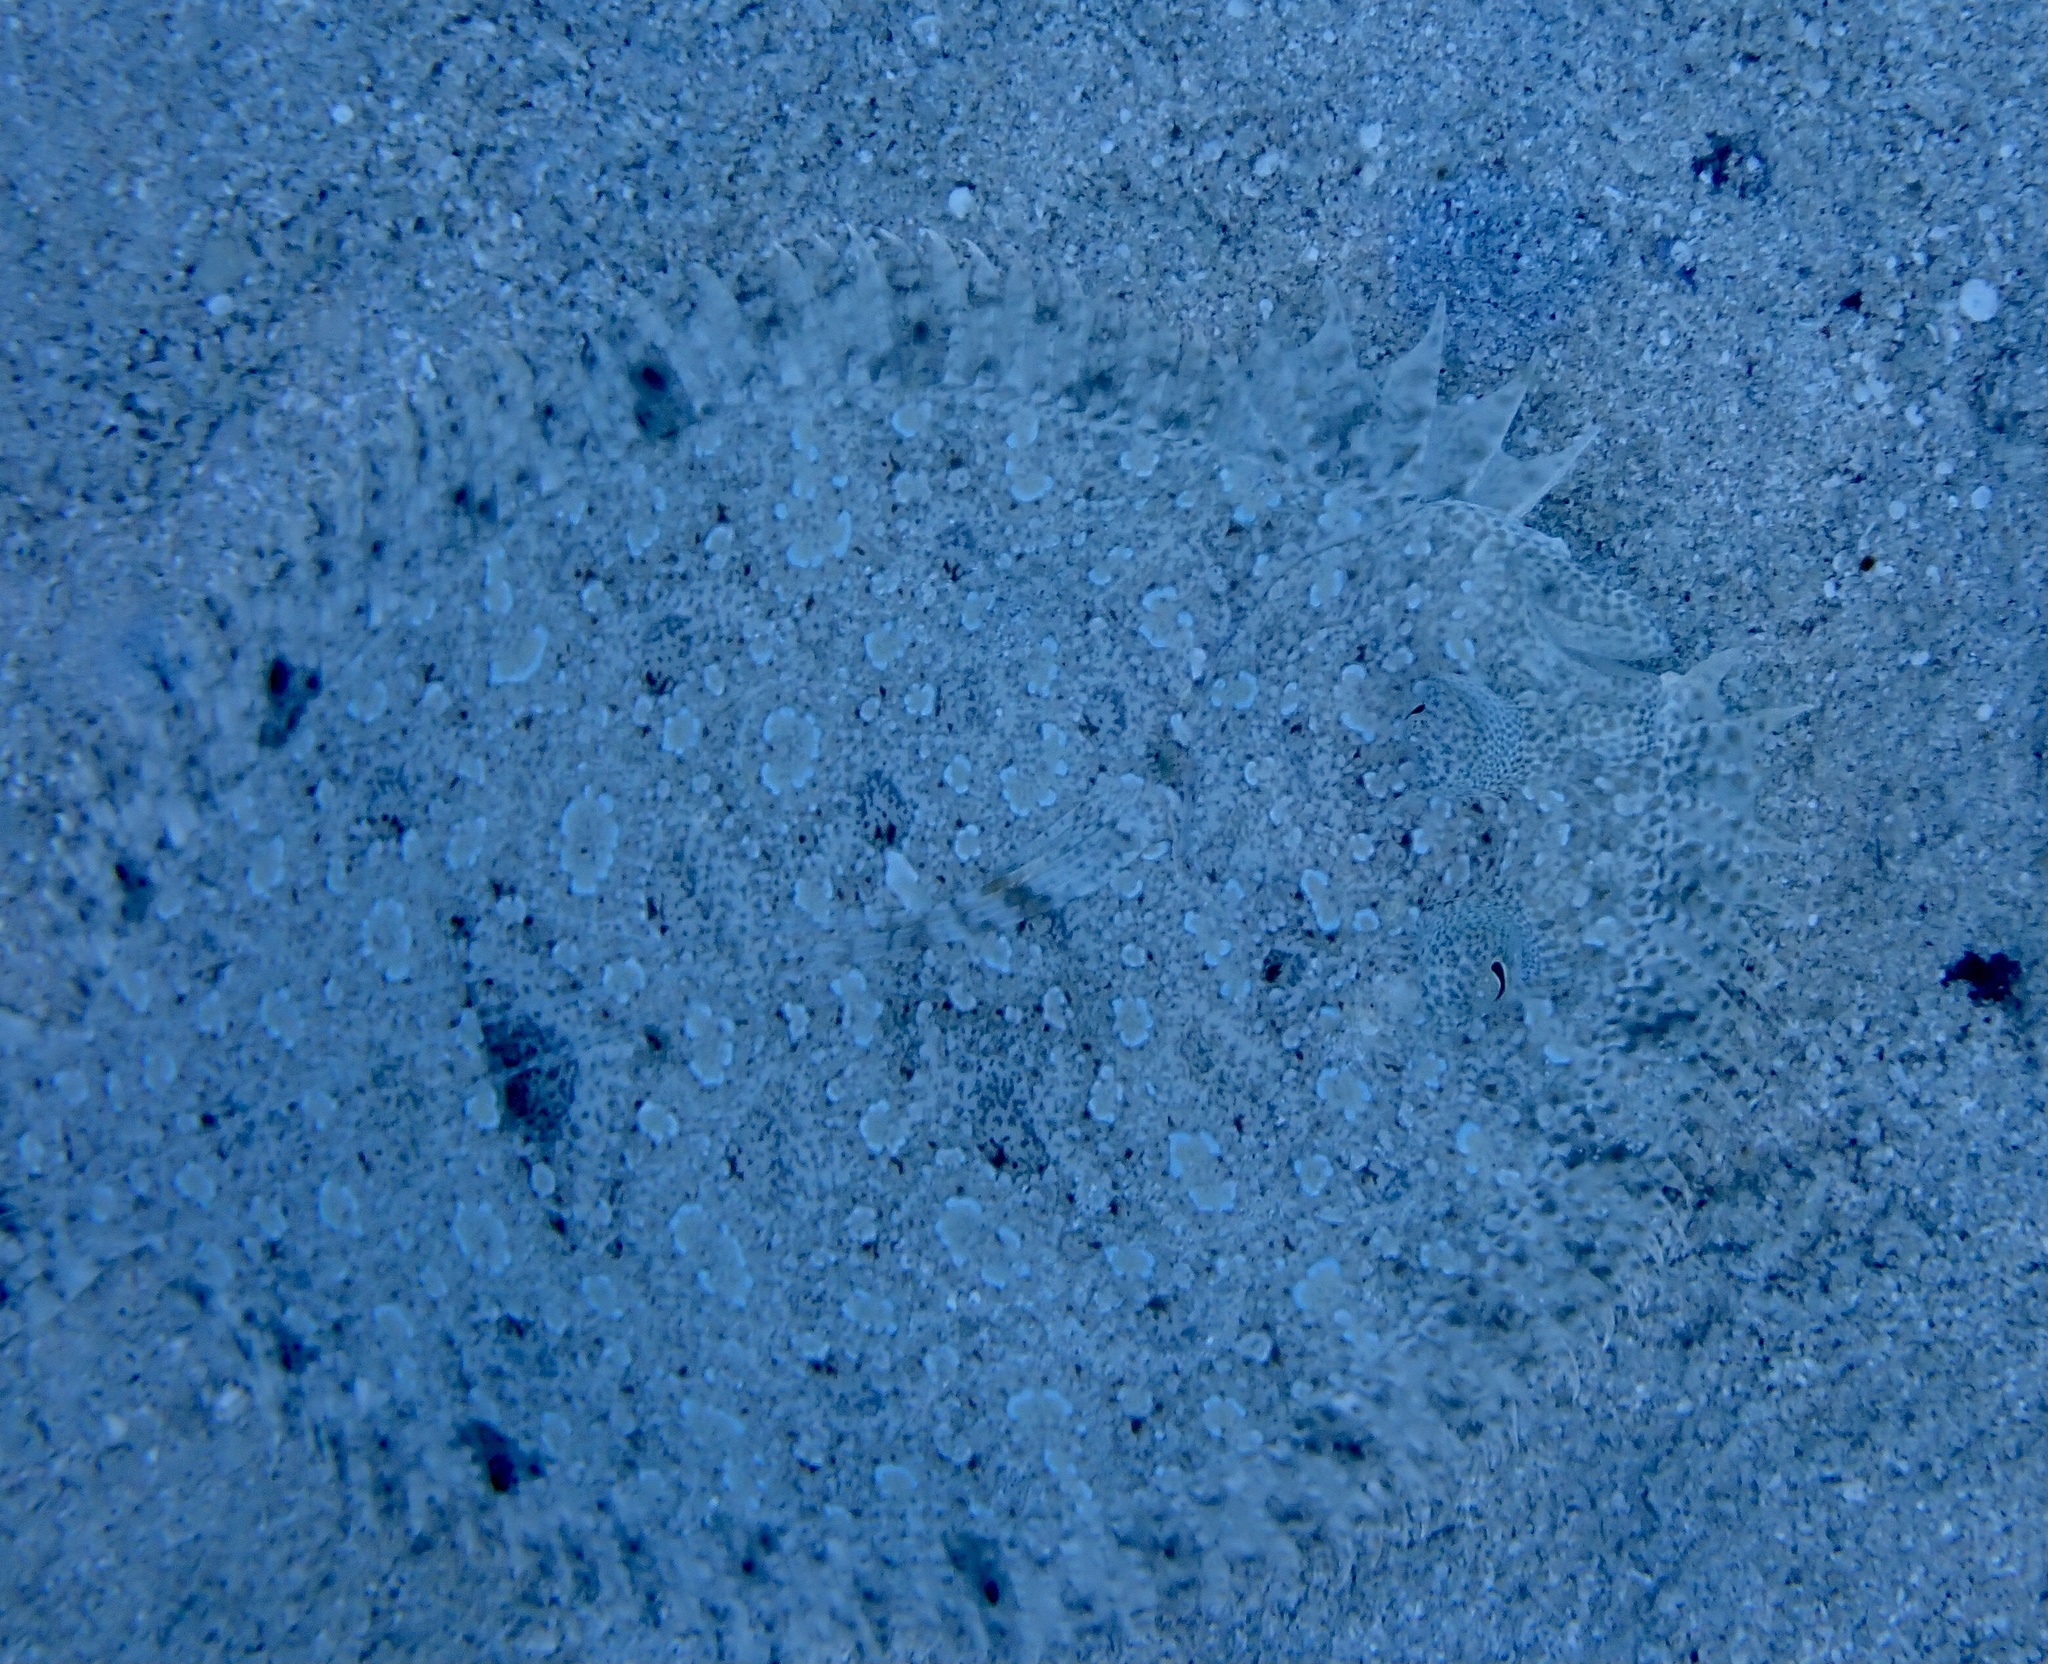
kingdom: Animalia
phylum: Chordata
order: Pleuronectiformes
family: Bothidae
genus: Bothus
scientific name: Bothus pantherinus
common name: Leopard flounder
